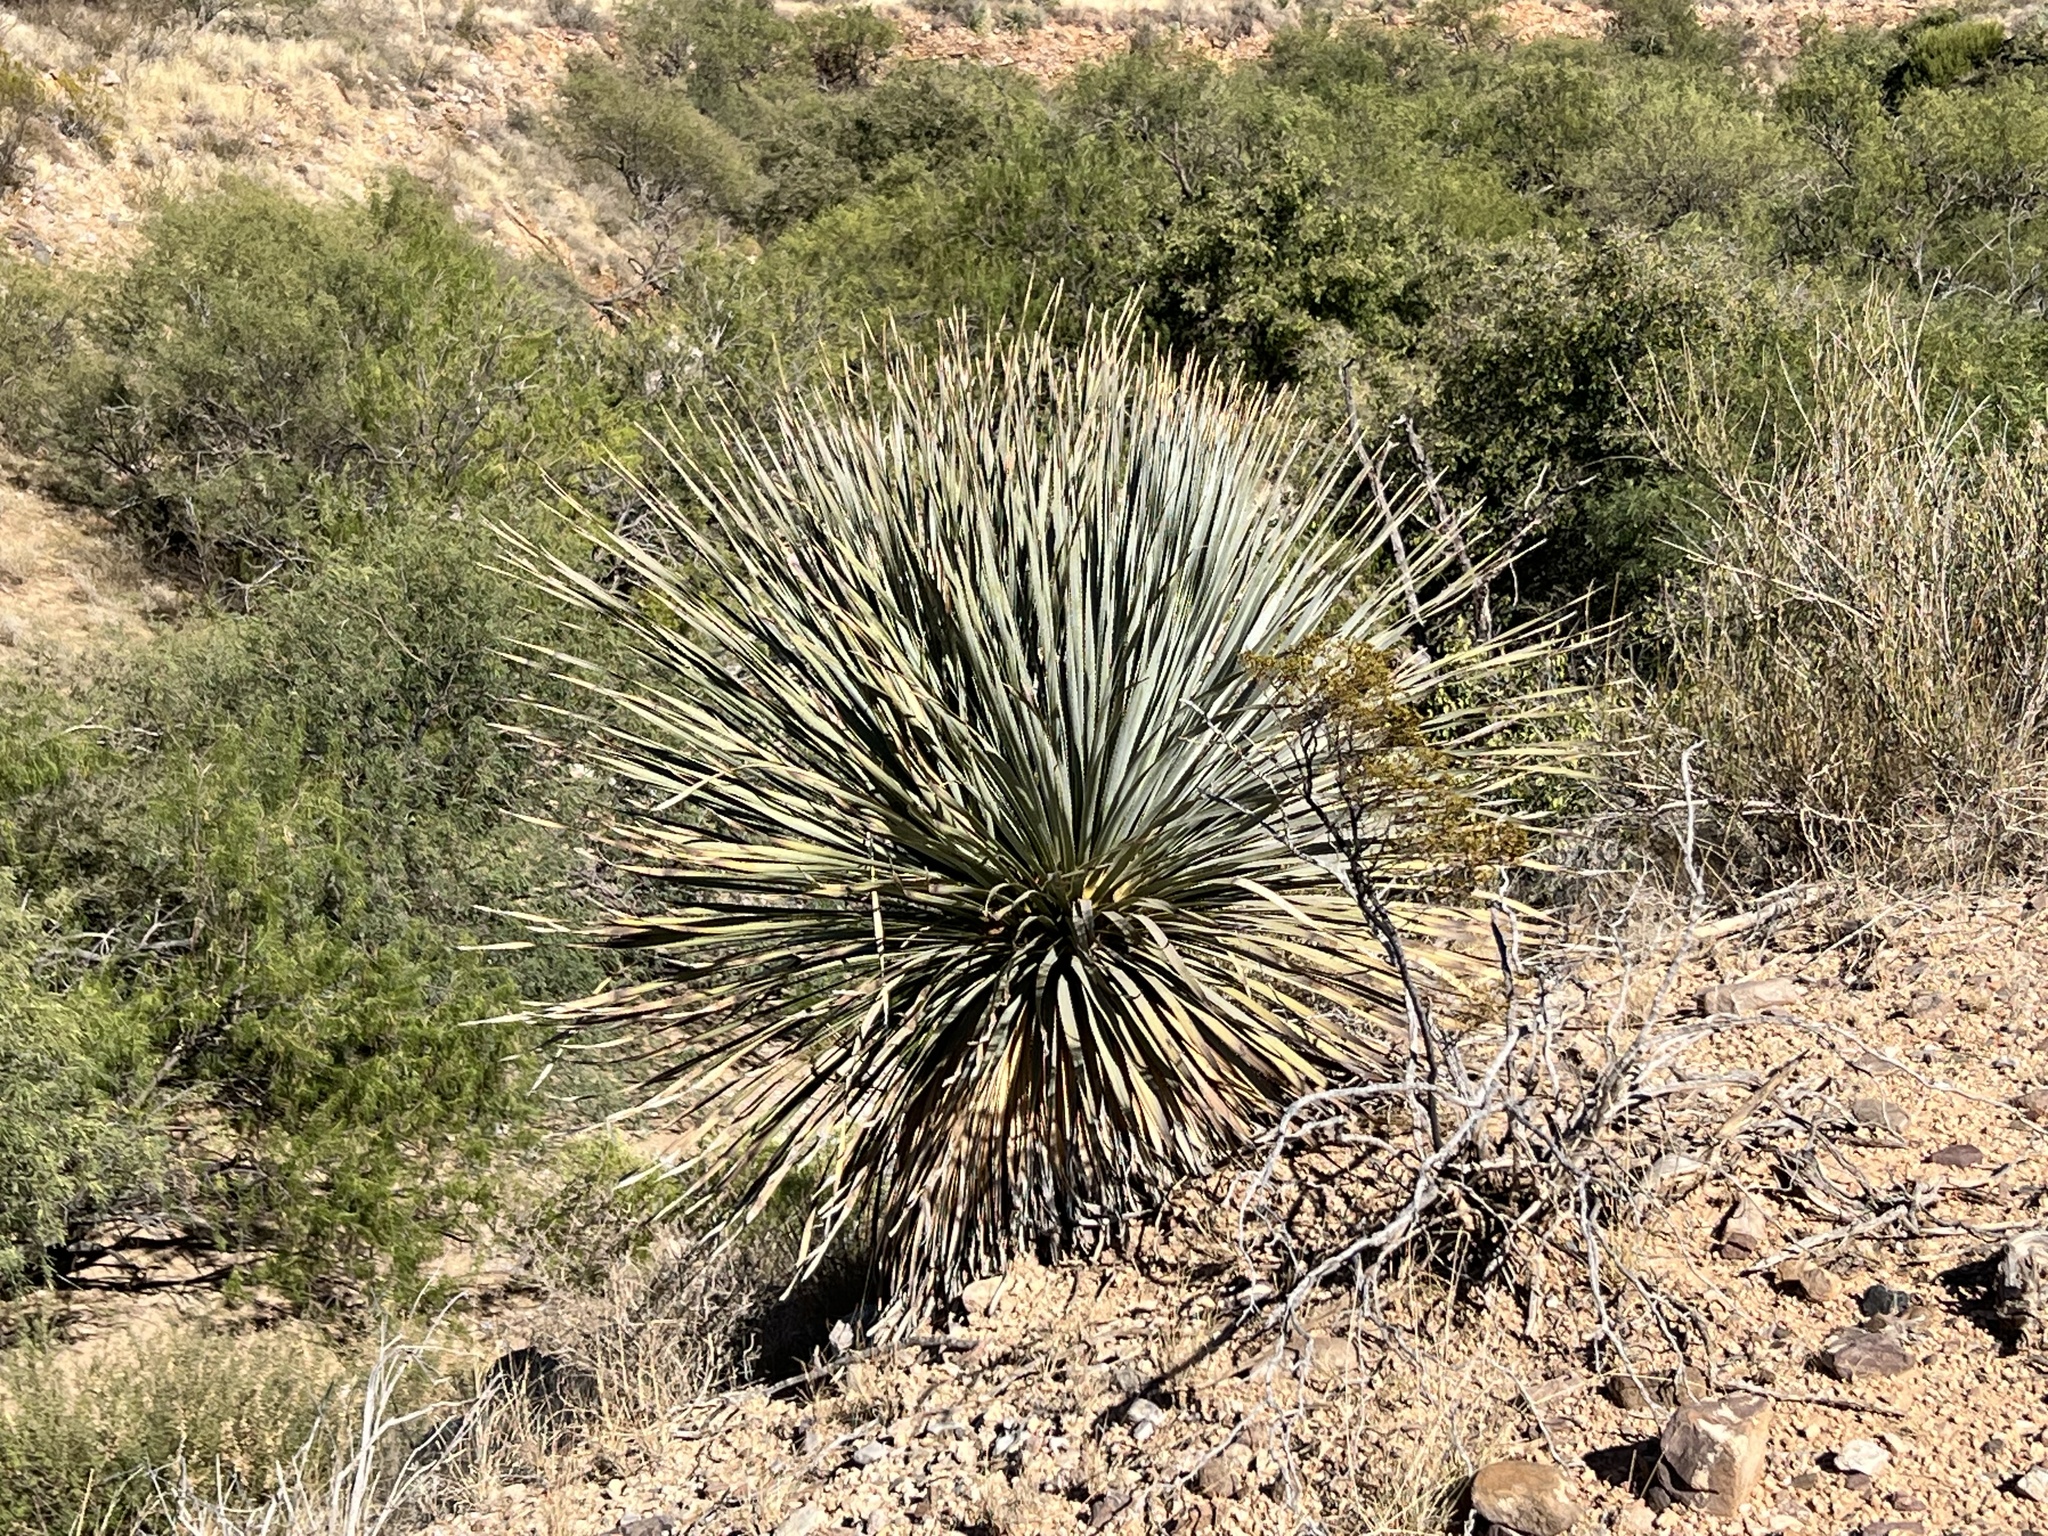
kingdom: Plantae
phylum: Tracheophyta
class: Liliopsida
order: Asparagales
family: Asparagaceae
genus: Dasylirion
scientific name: Dasylirion wheeleri
